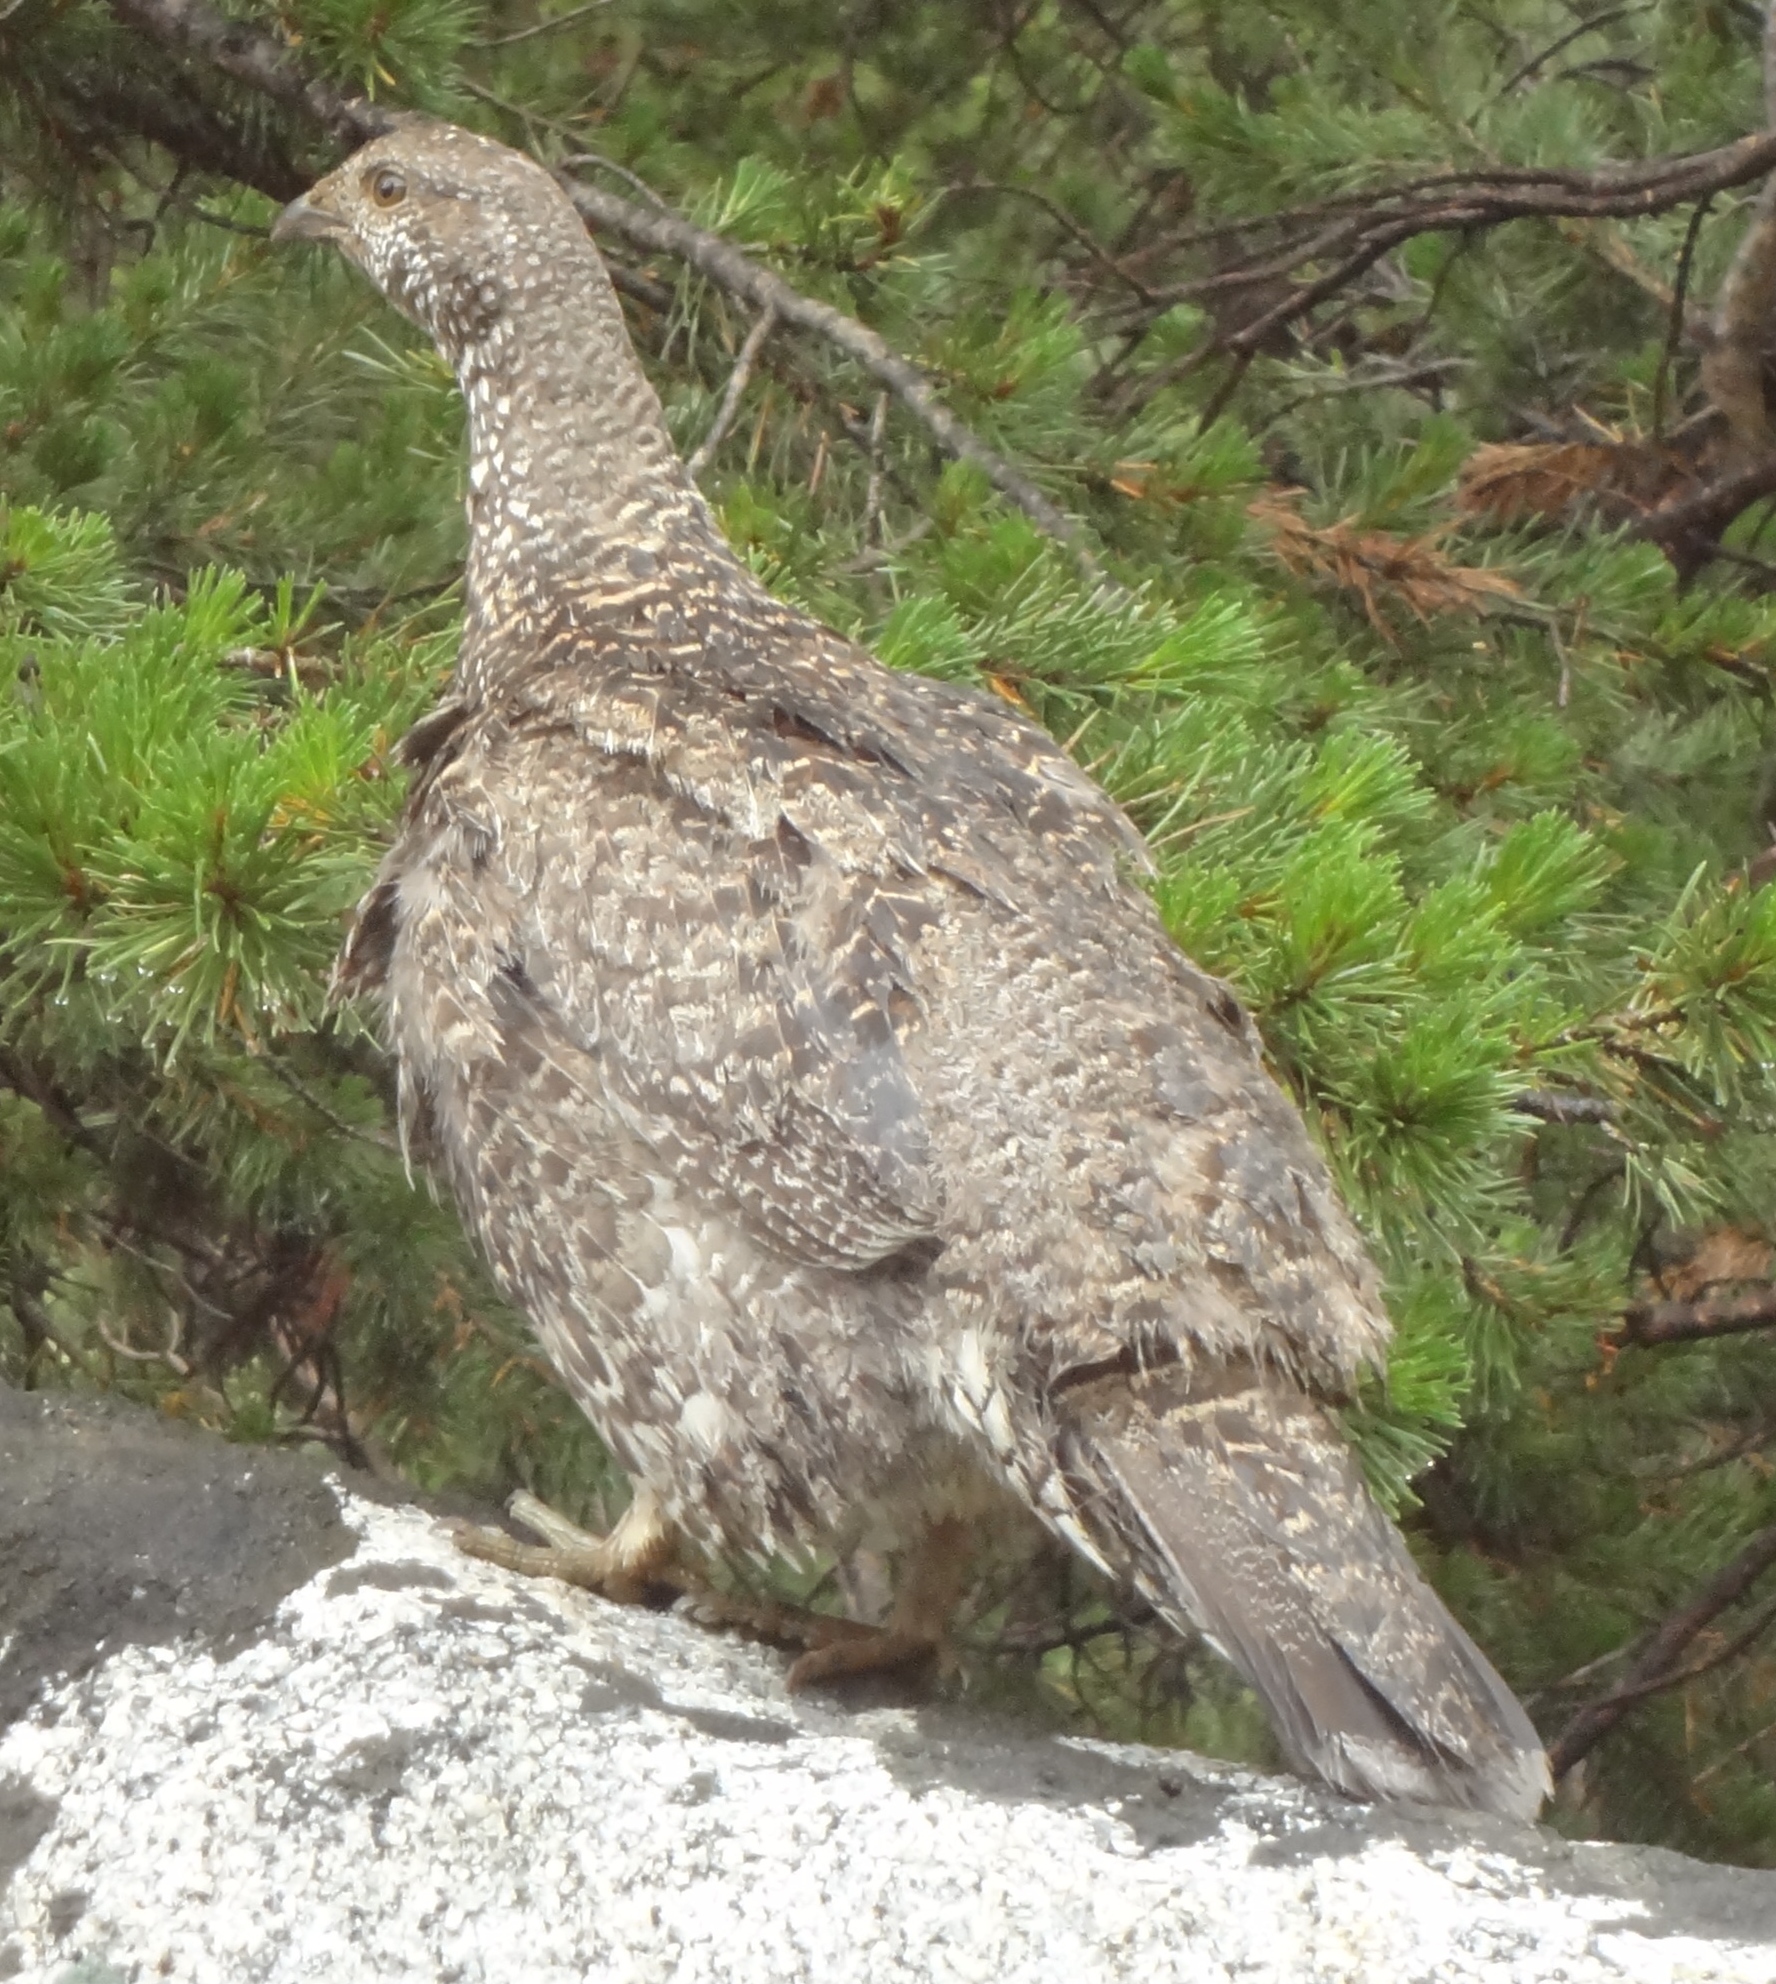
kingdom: Animalia
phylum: Chordata
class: Aves
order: Galliformes
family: Phasianidae
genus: Dendragapus
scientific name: Dendragapus fuliginosus
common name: Sooty grouse
